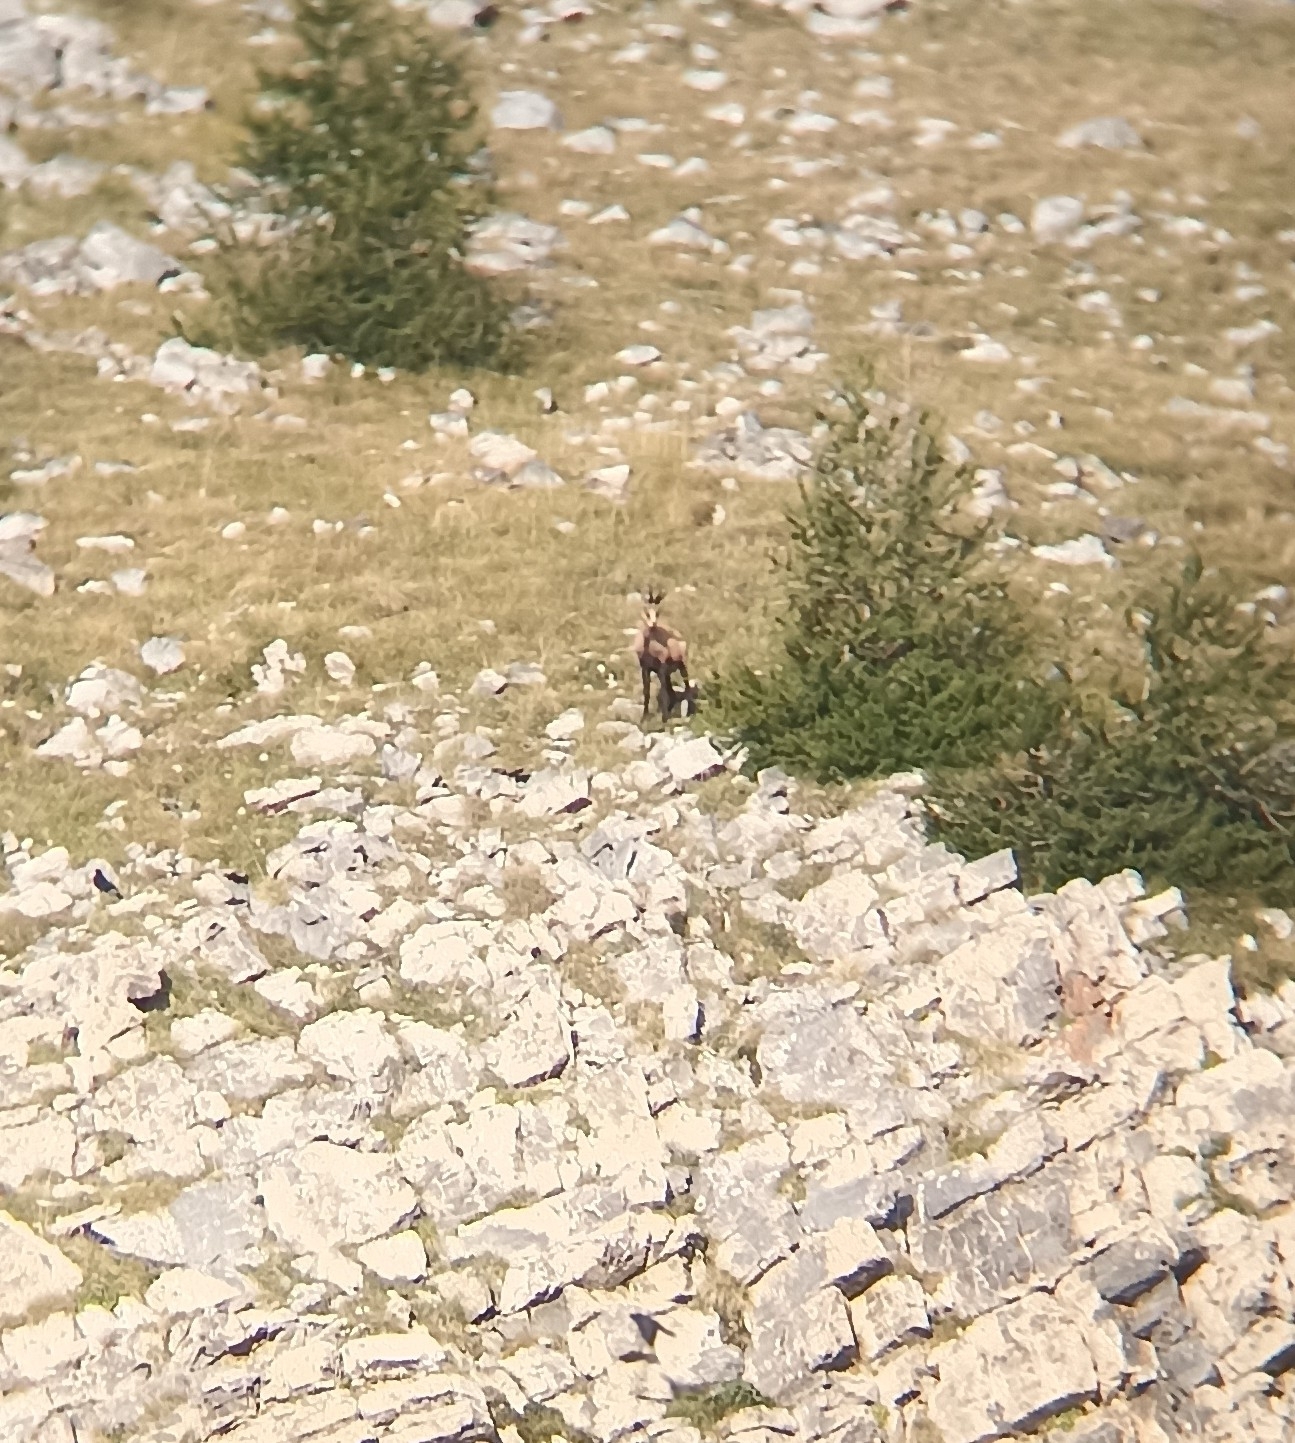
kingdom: Animalia
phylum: Chordata
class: Mammalia
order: Artiodactyla
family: Bovidae
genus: Rupicapra
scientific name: Rupicapra rupicapra
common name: Chamois
